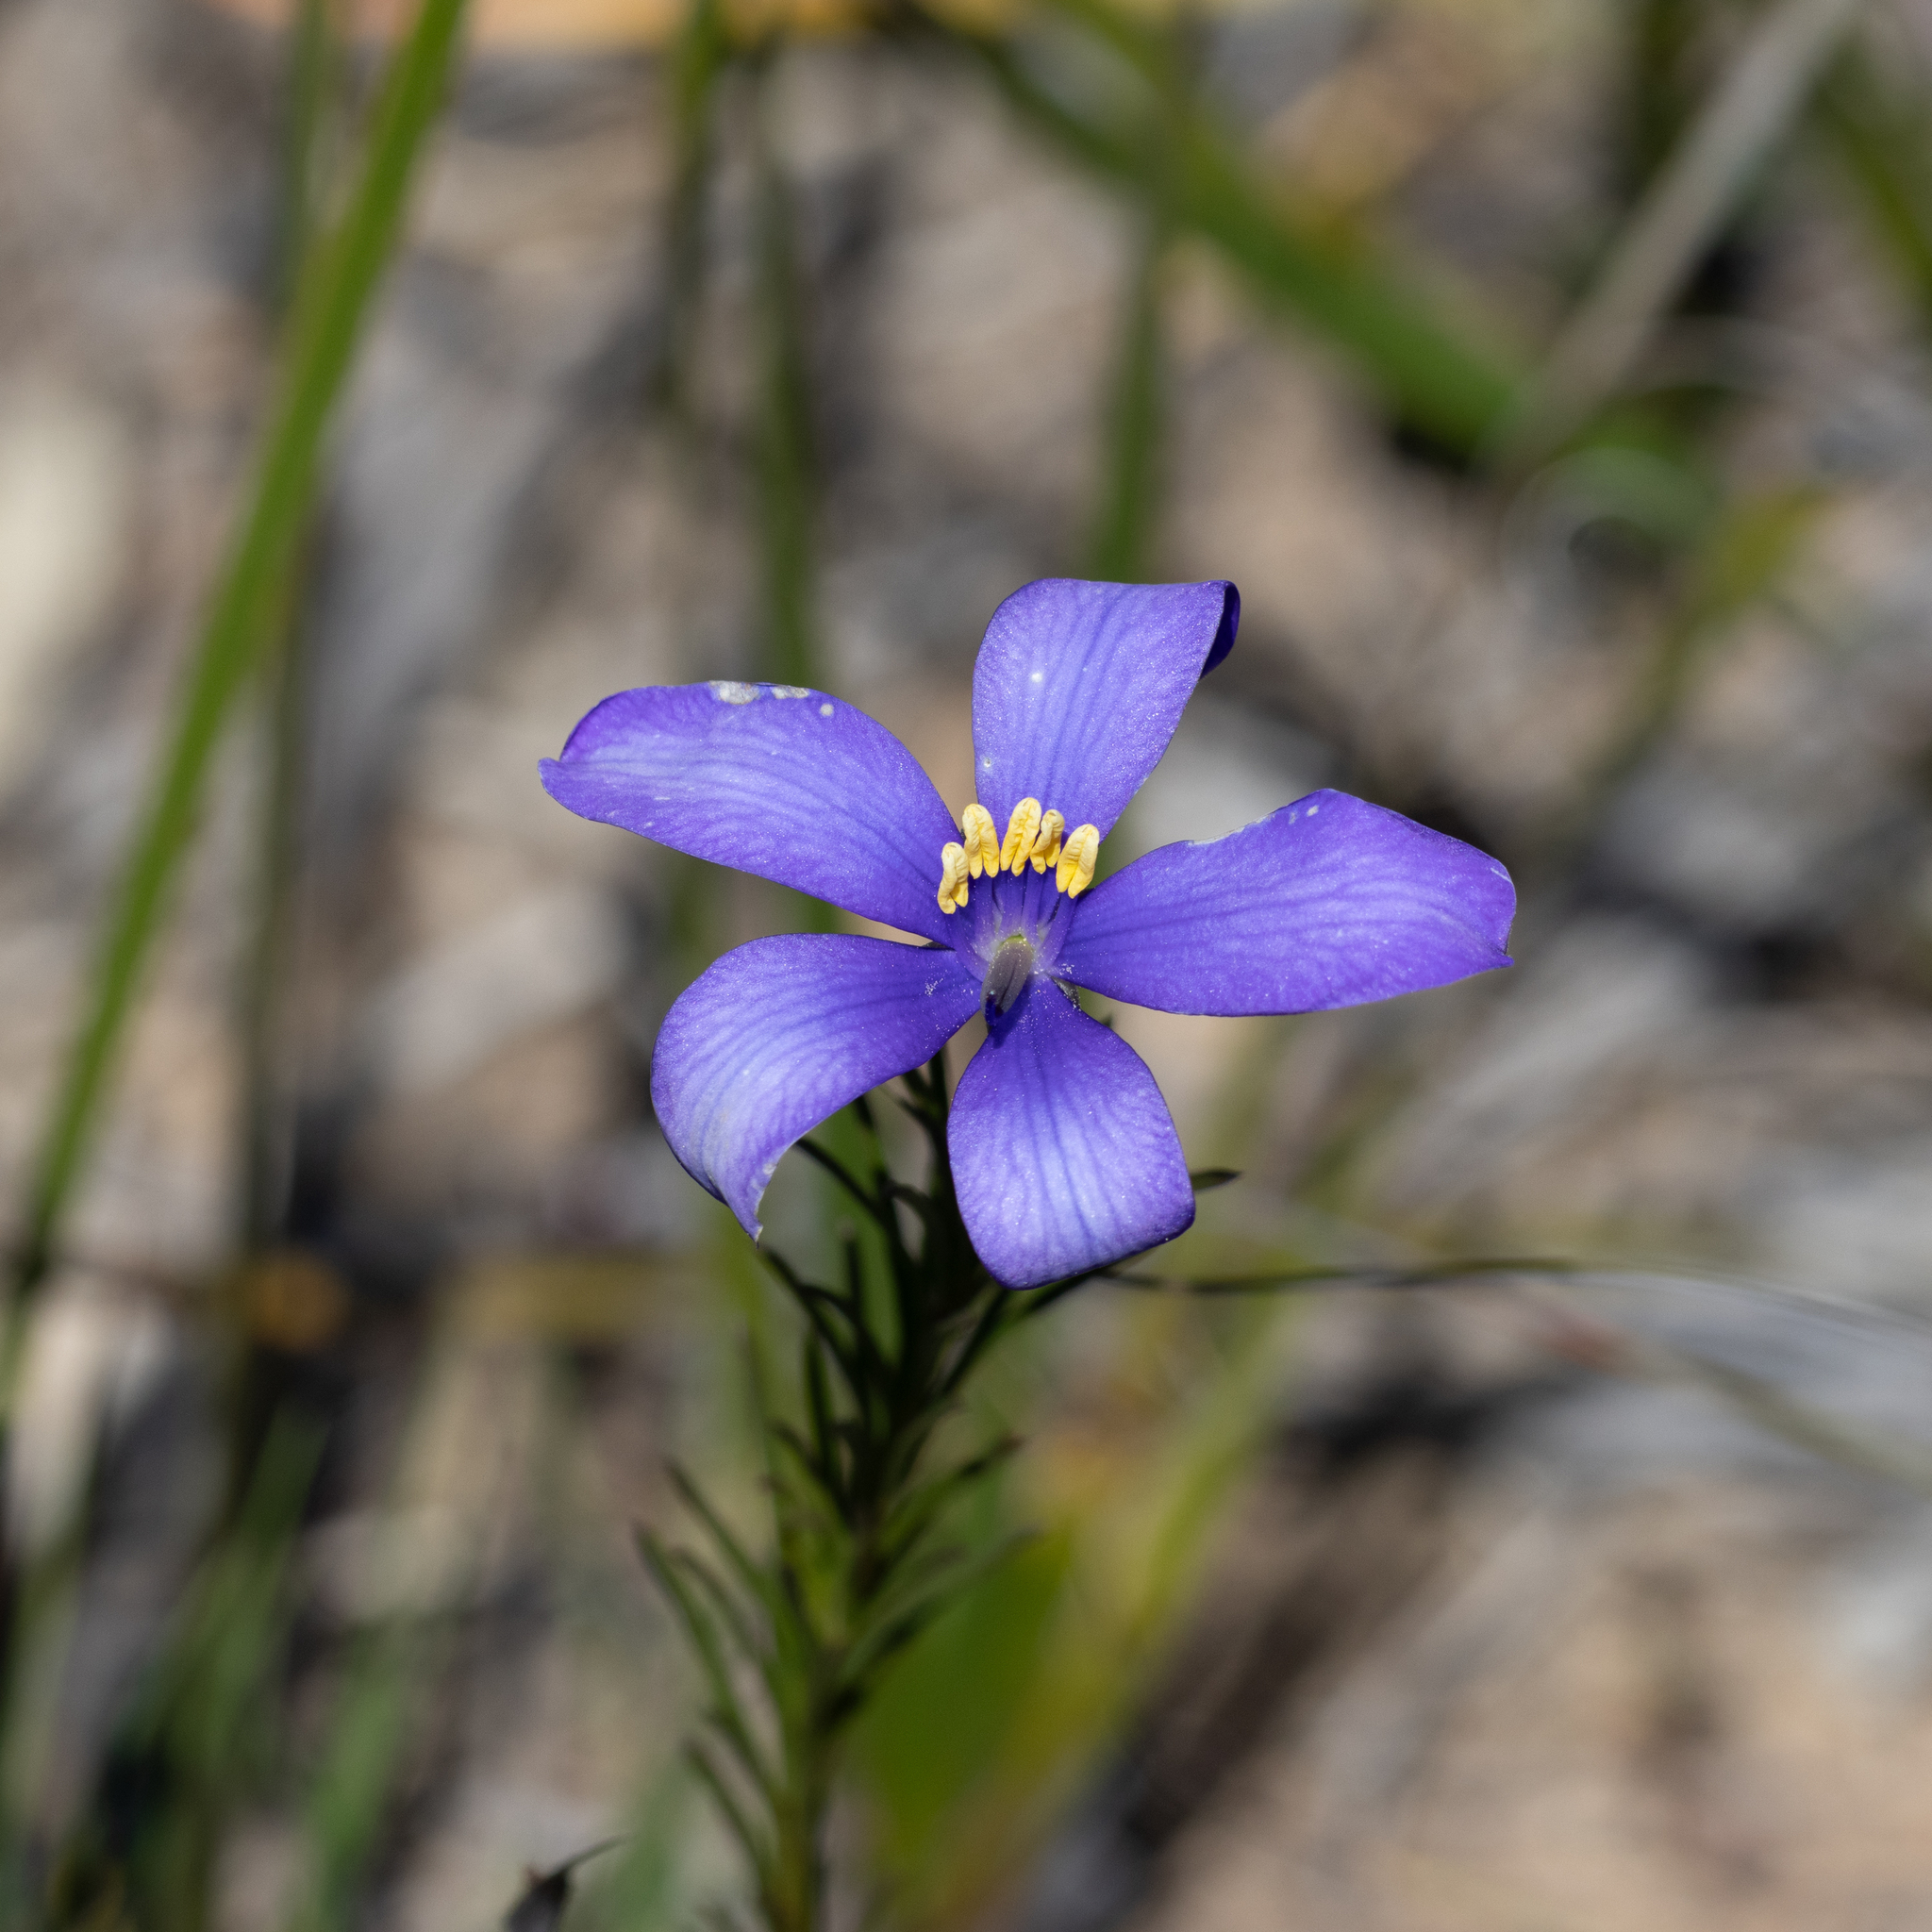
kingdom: Plantae
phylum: Tracheophyta
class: Magnoliopsida
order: Apiales
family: Pittosporaceae
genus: Cheiranthera
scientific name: Cheiranthera alternifolia
